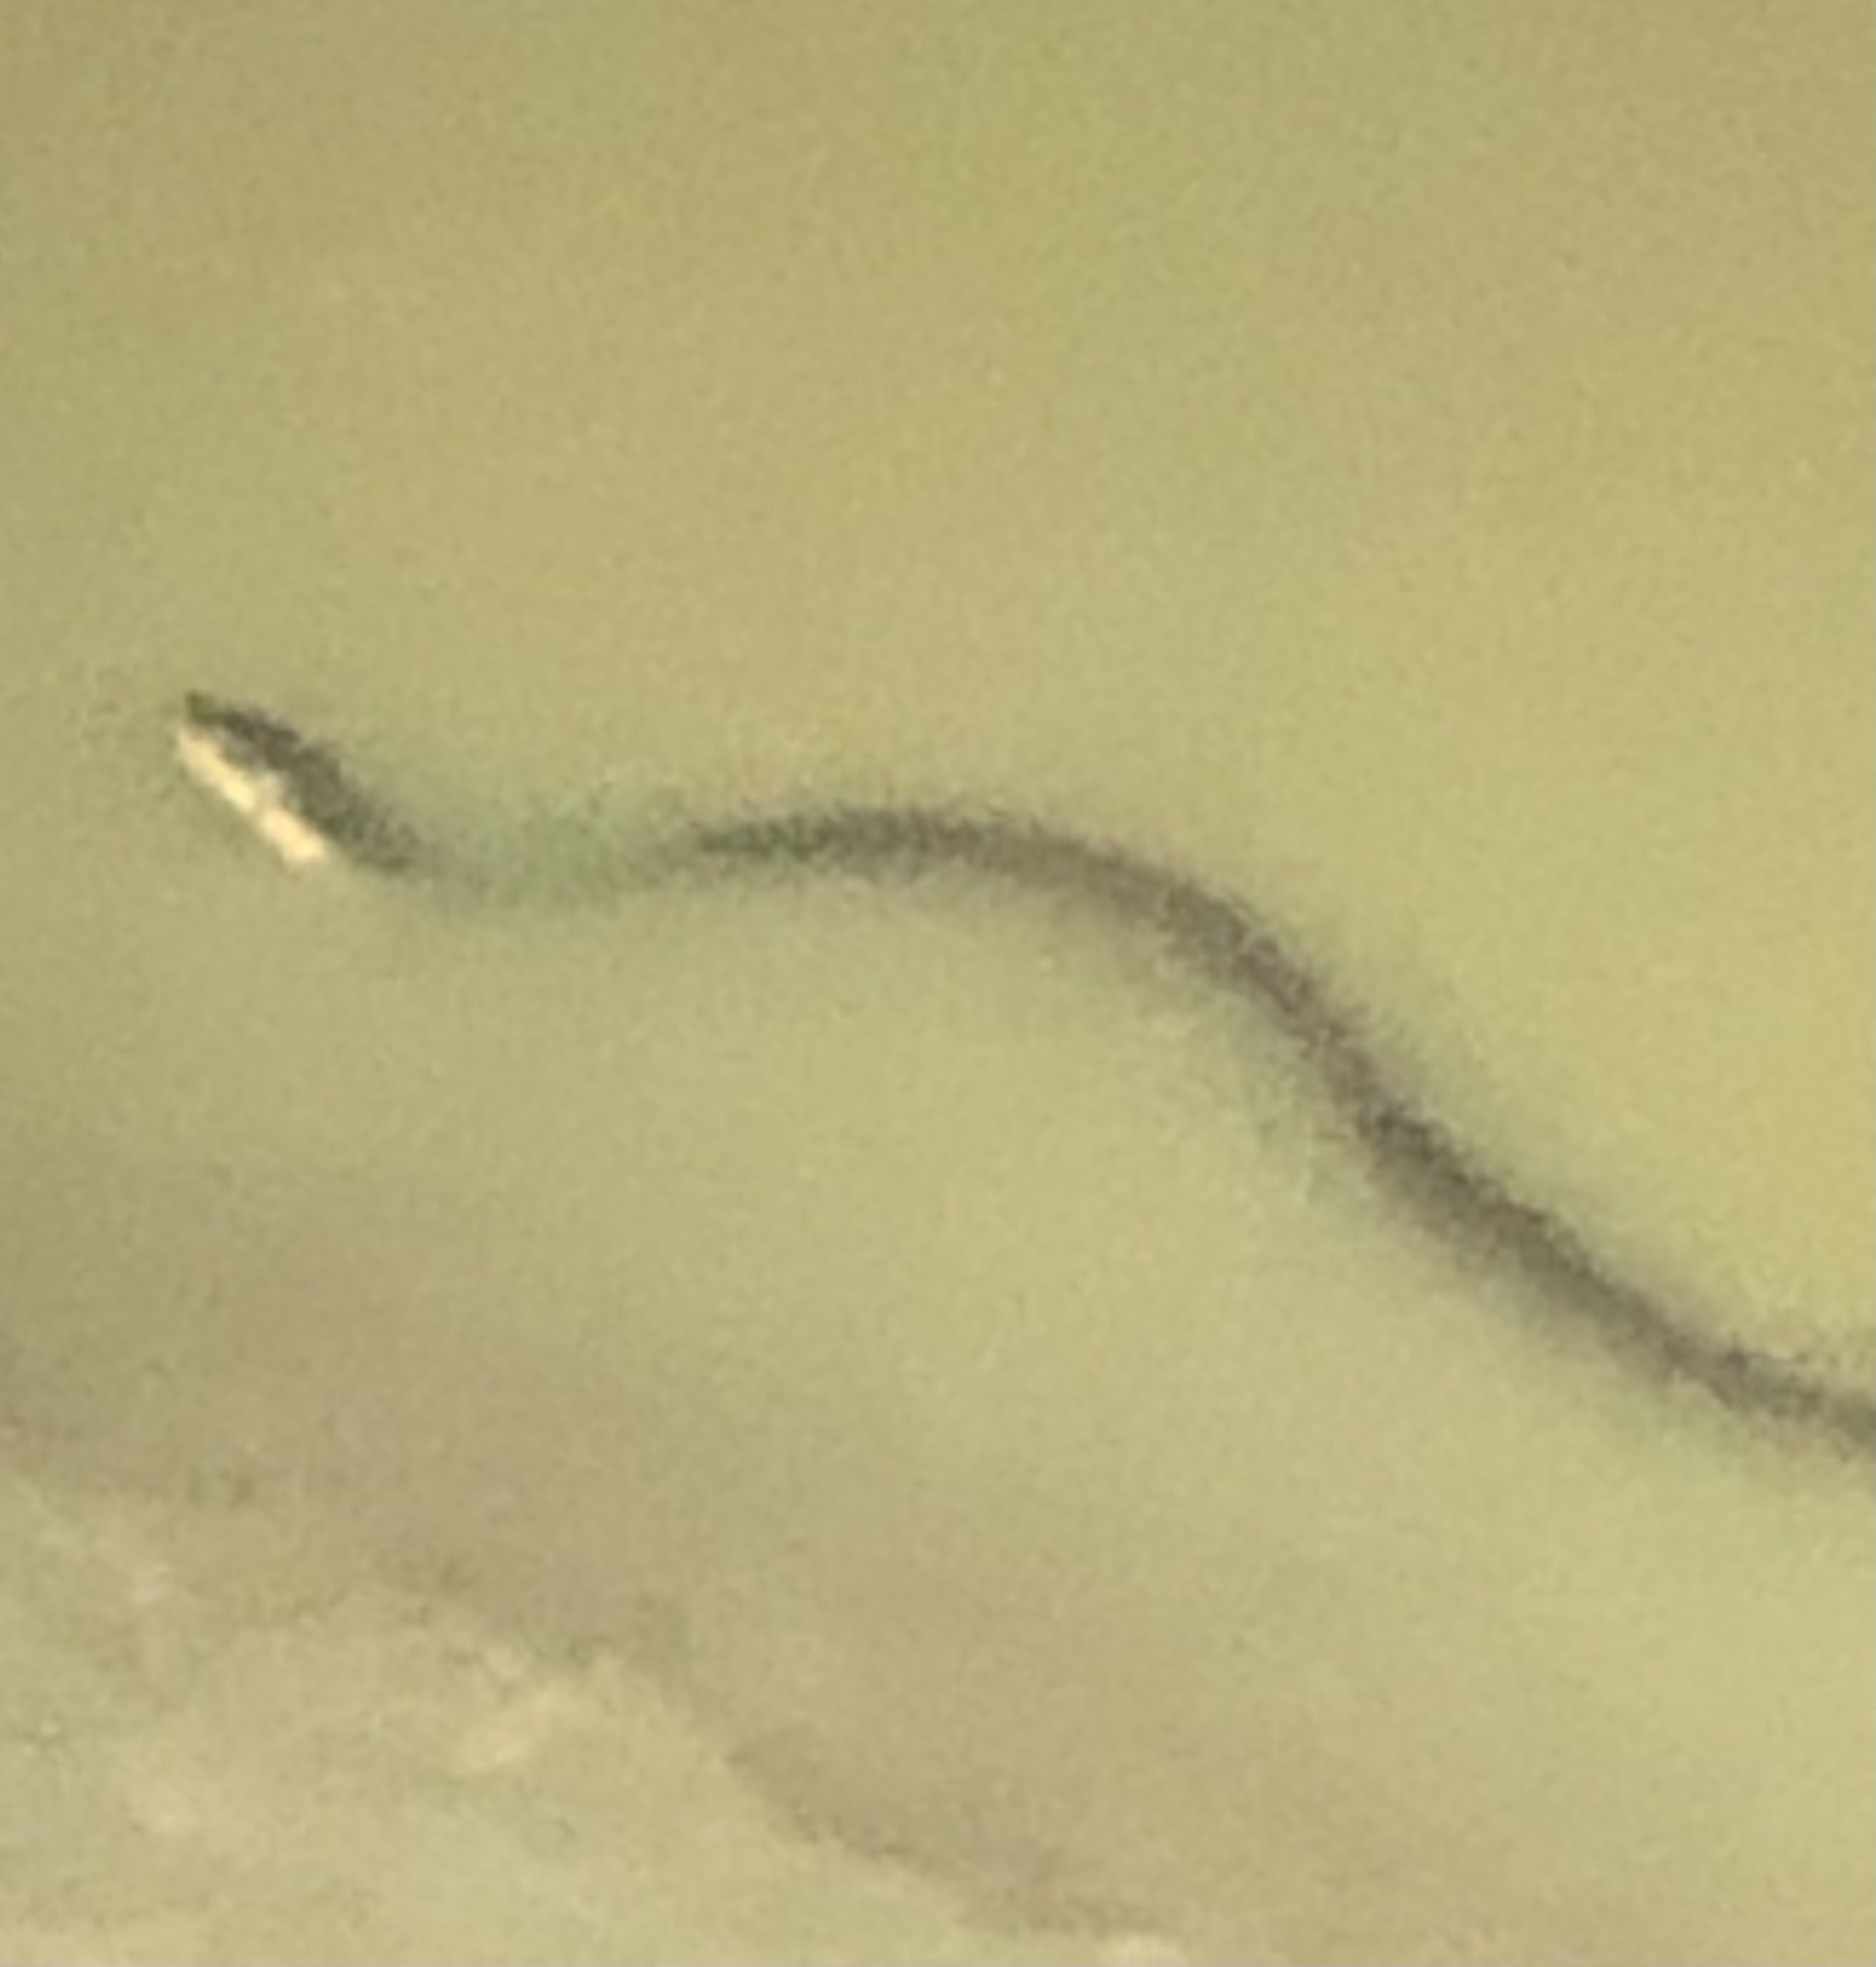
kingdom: Animalia
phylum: Chordata
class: Squamata
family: Colubridae
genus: Nerodia
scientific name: Nerodia erythrogaster
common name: Plainbelly water snake
